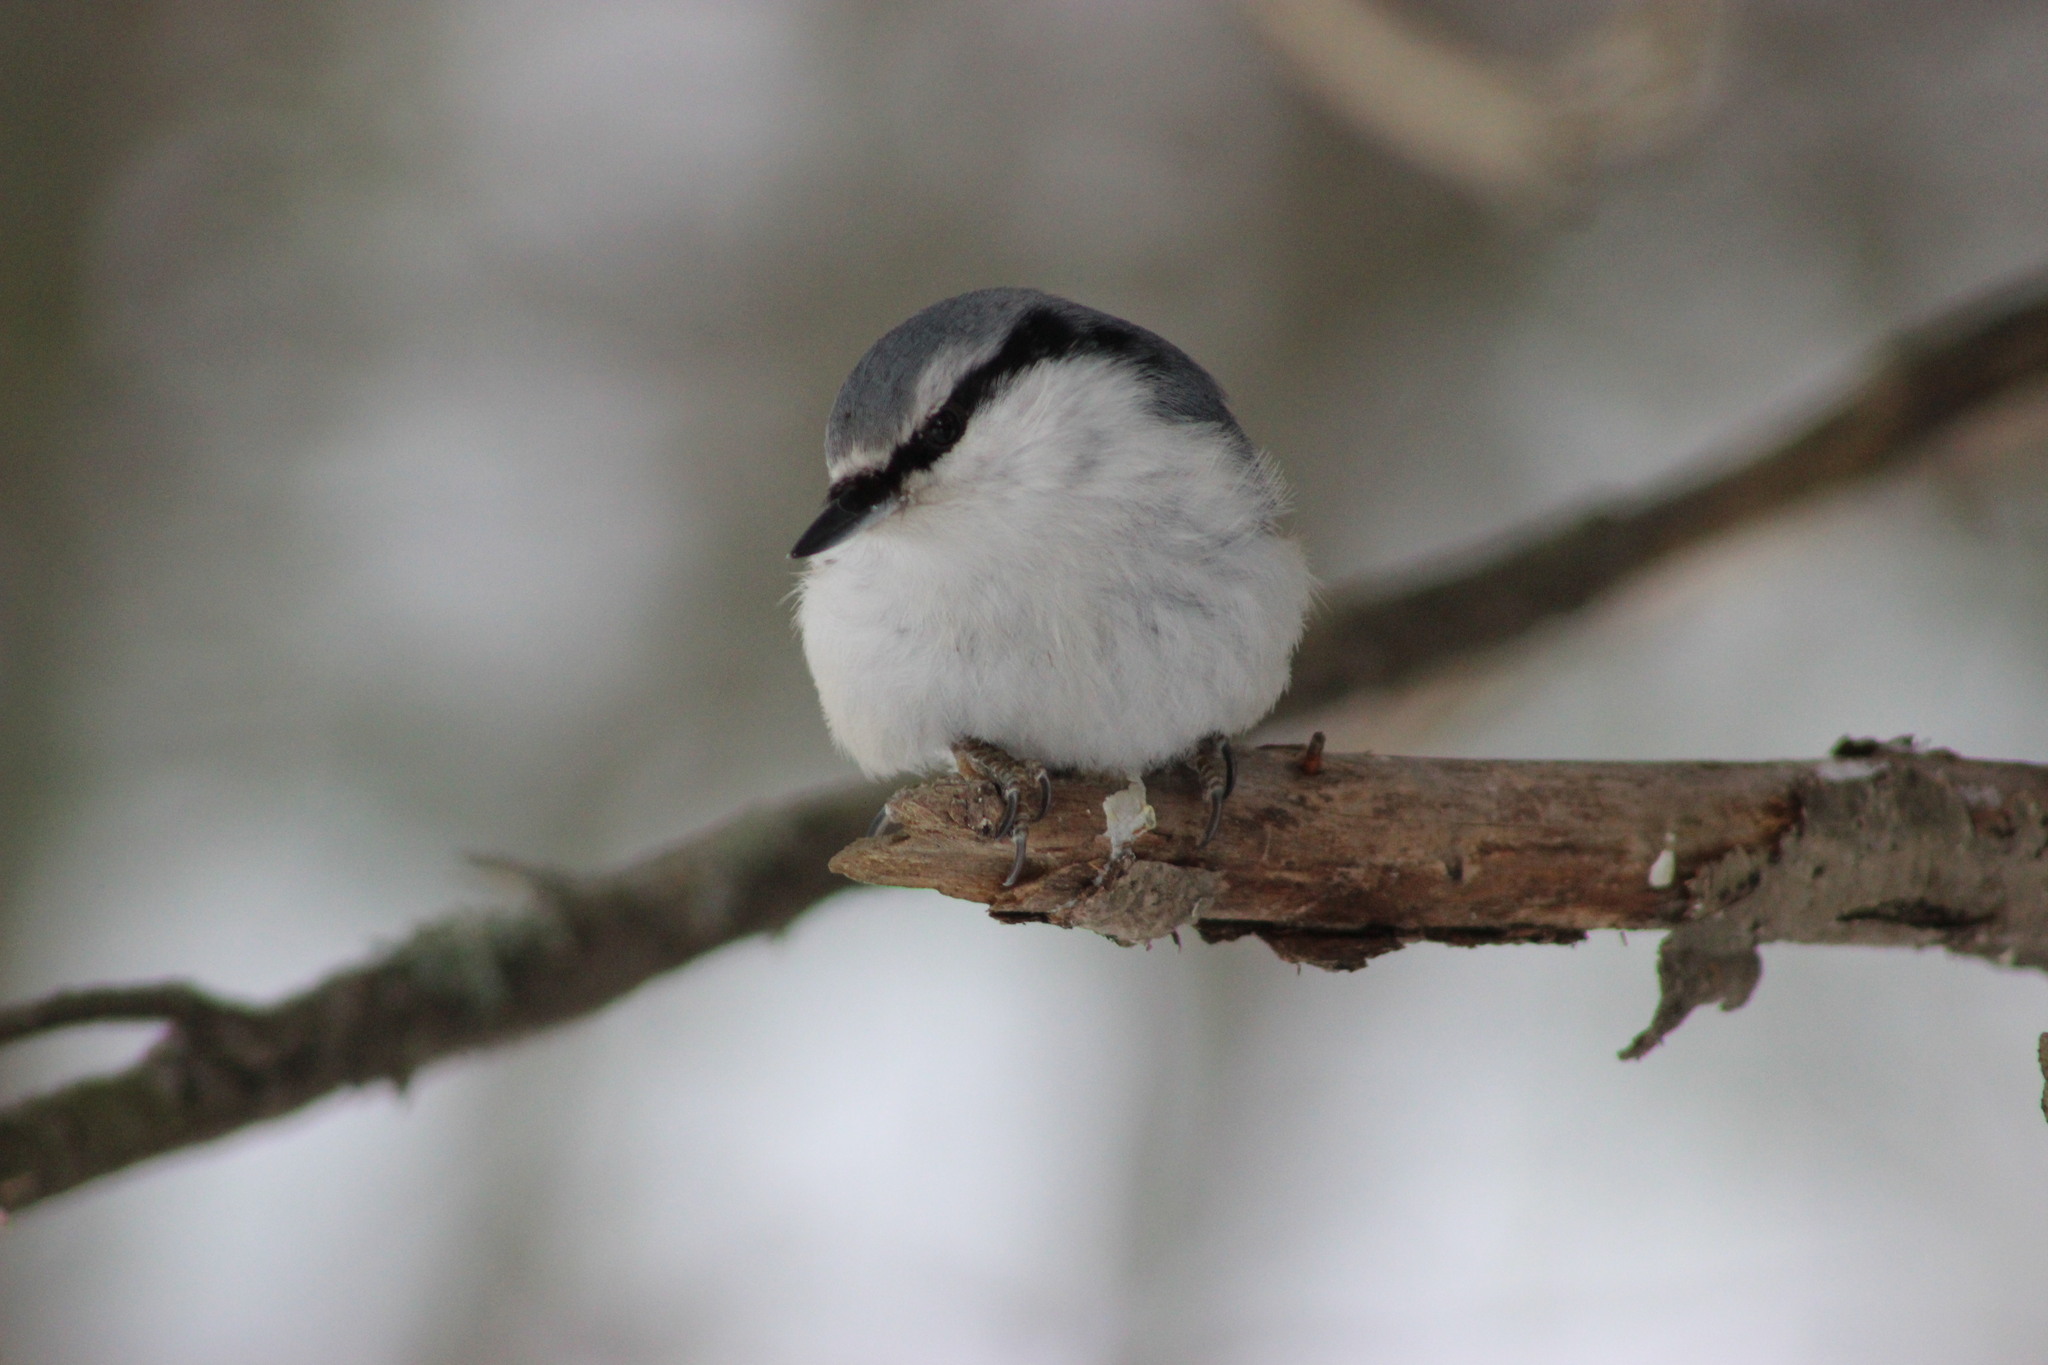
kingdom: Animalia
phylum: Chordata
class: Aves
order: Passeriformes
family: Sittidae
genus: Sitta
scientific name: Sitta europaea
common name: Eurasian nuthatch
